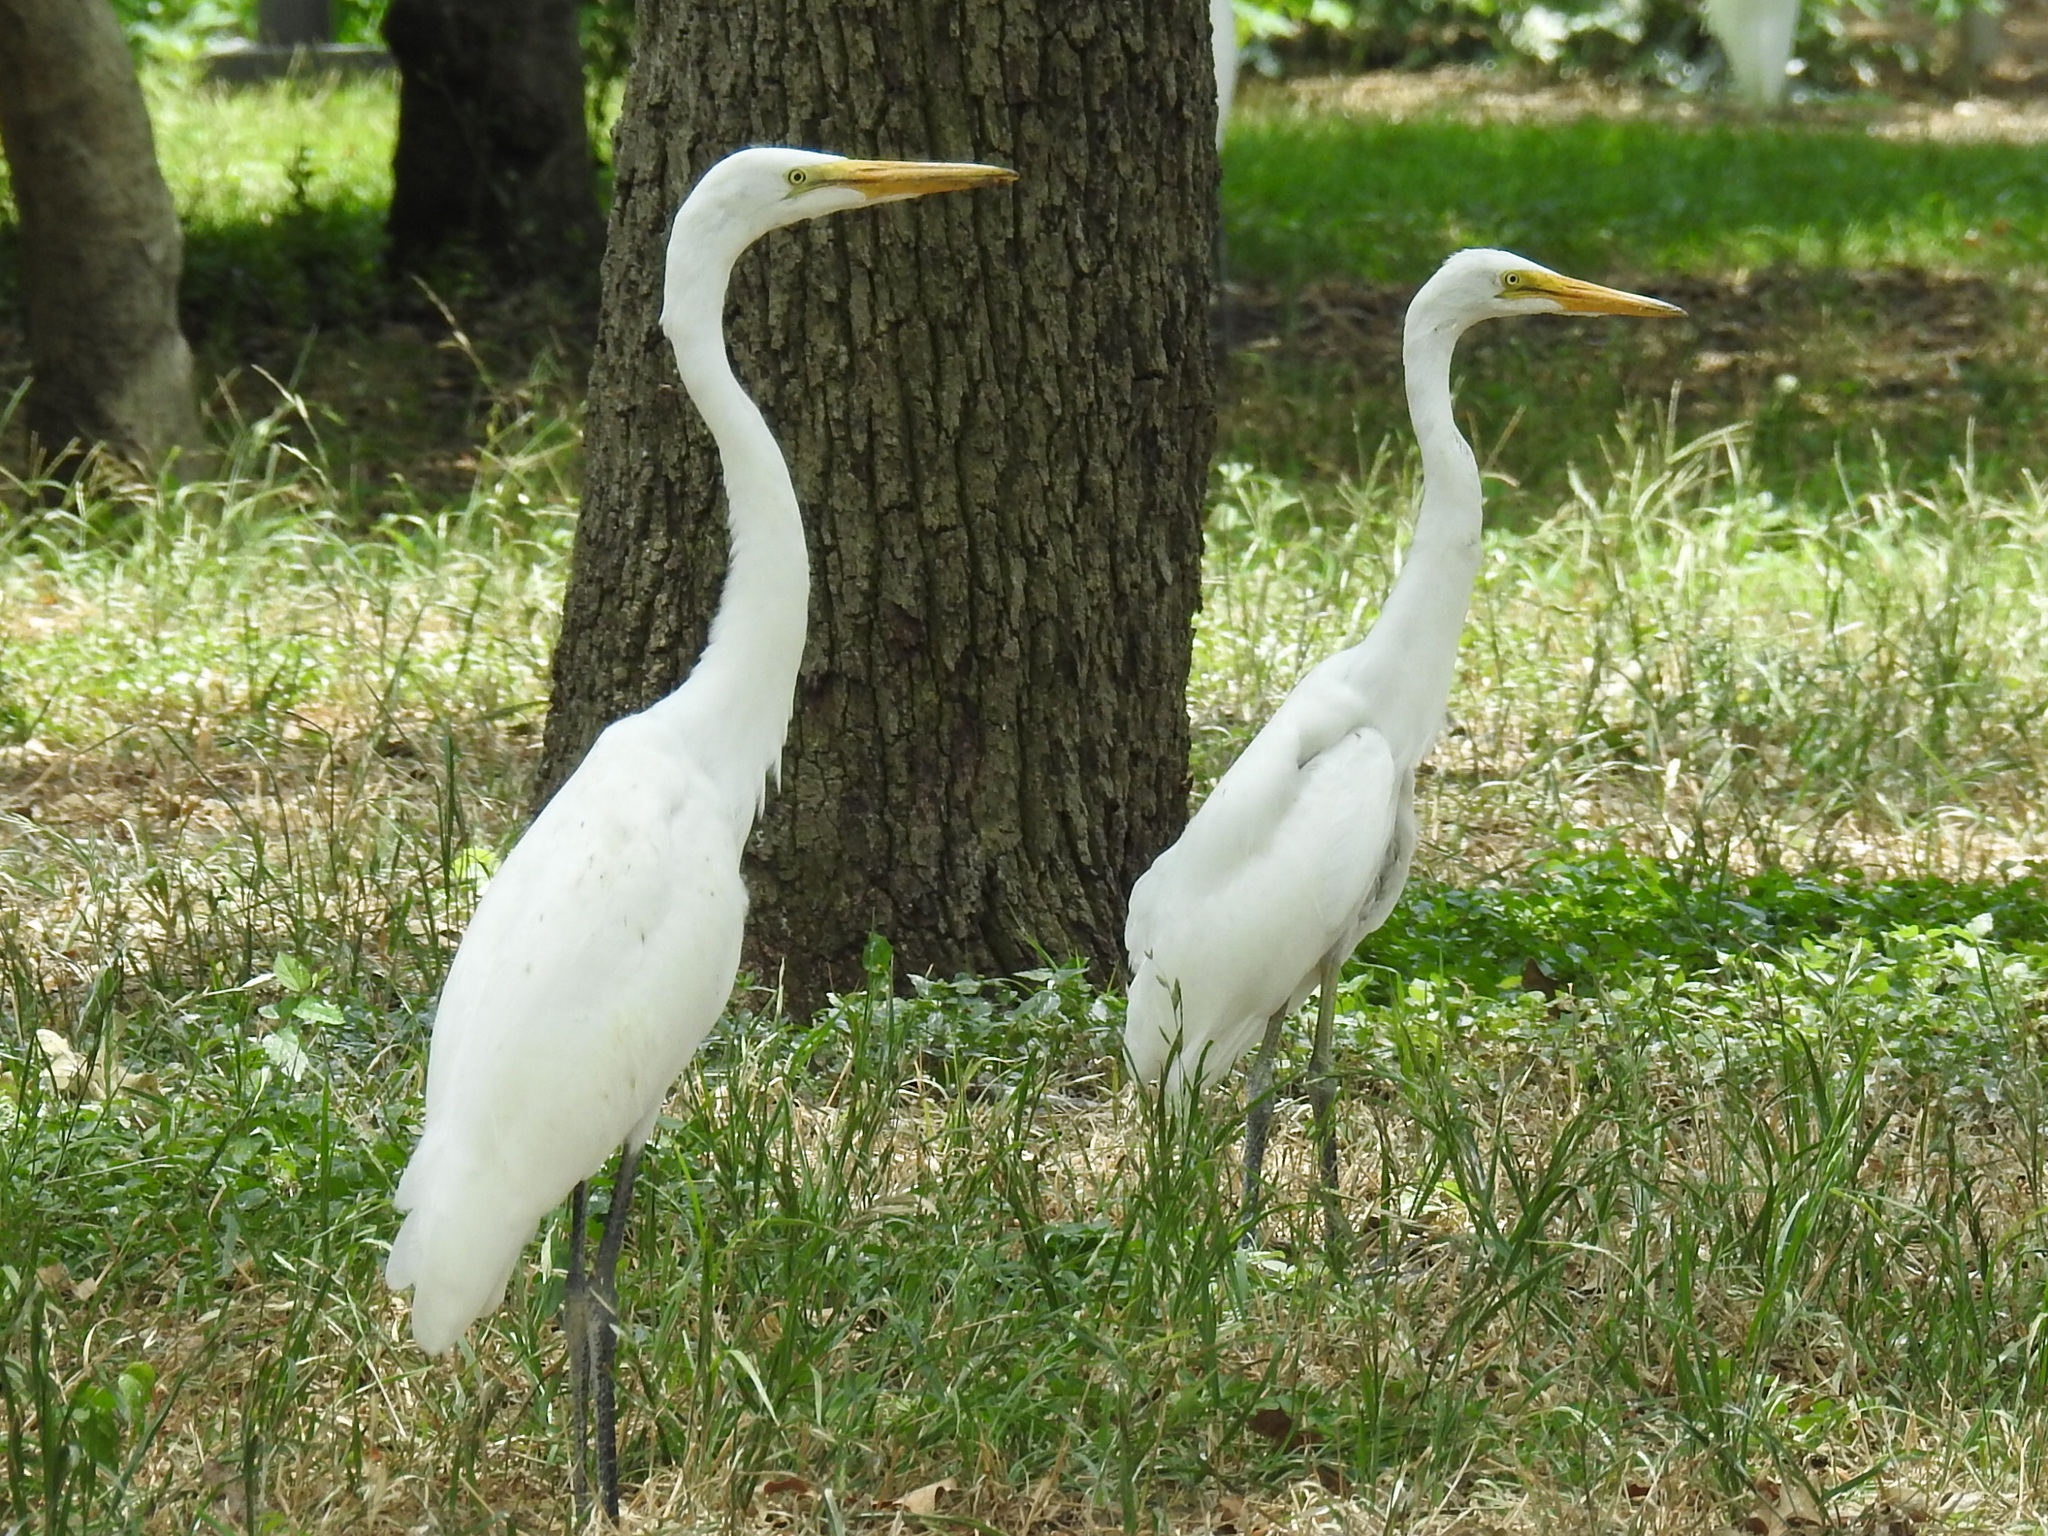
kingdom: Animalia
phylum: Chordata
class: Aves
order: Pelecaniformes
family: Ardeidae
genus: Ardea
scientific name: Ardea alba
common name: Great egret
